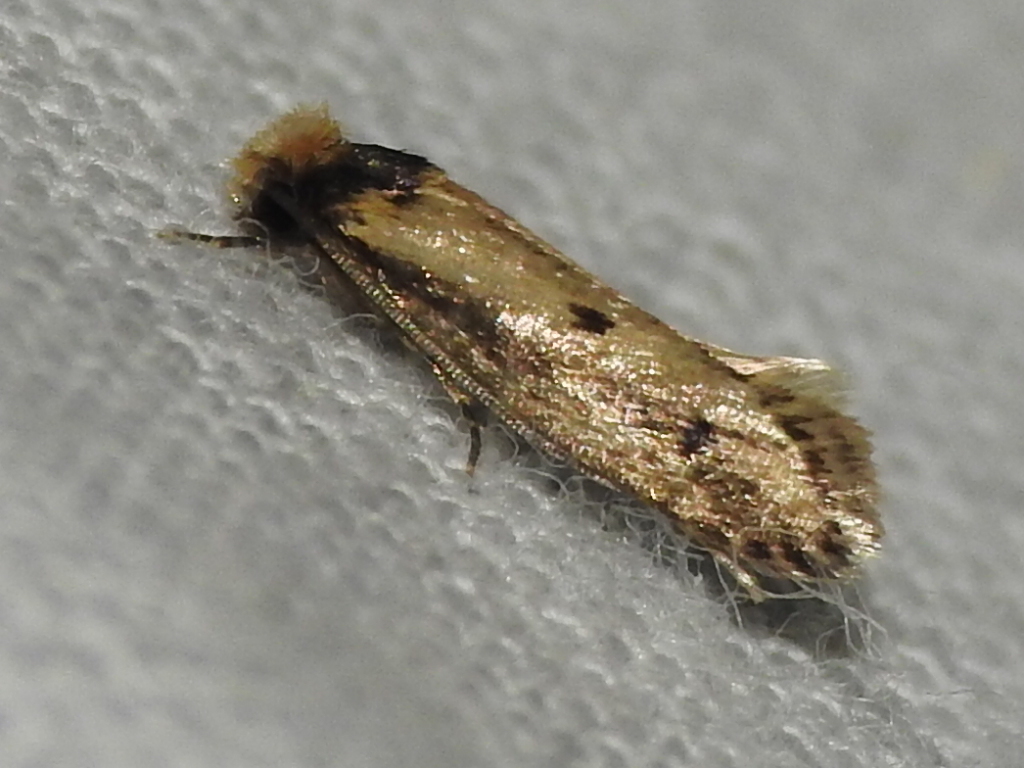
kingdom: Animalia
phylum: Arthropoda
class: Insecta
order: Lepidoptera
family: Tineidae
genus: Tinea
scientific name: Tinea apicimaculella
